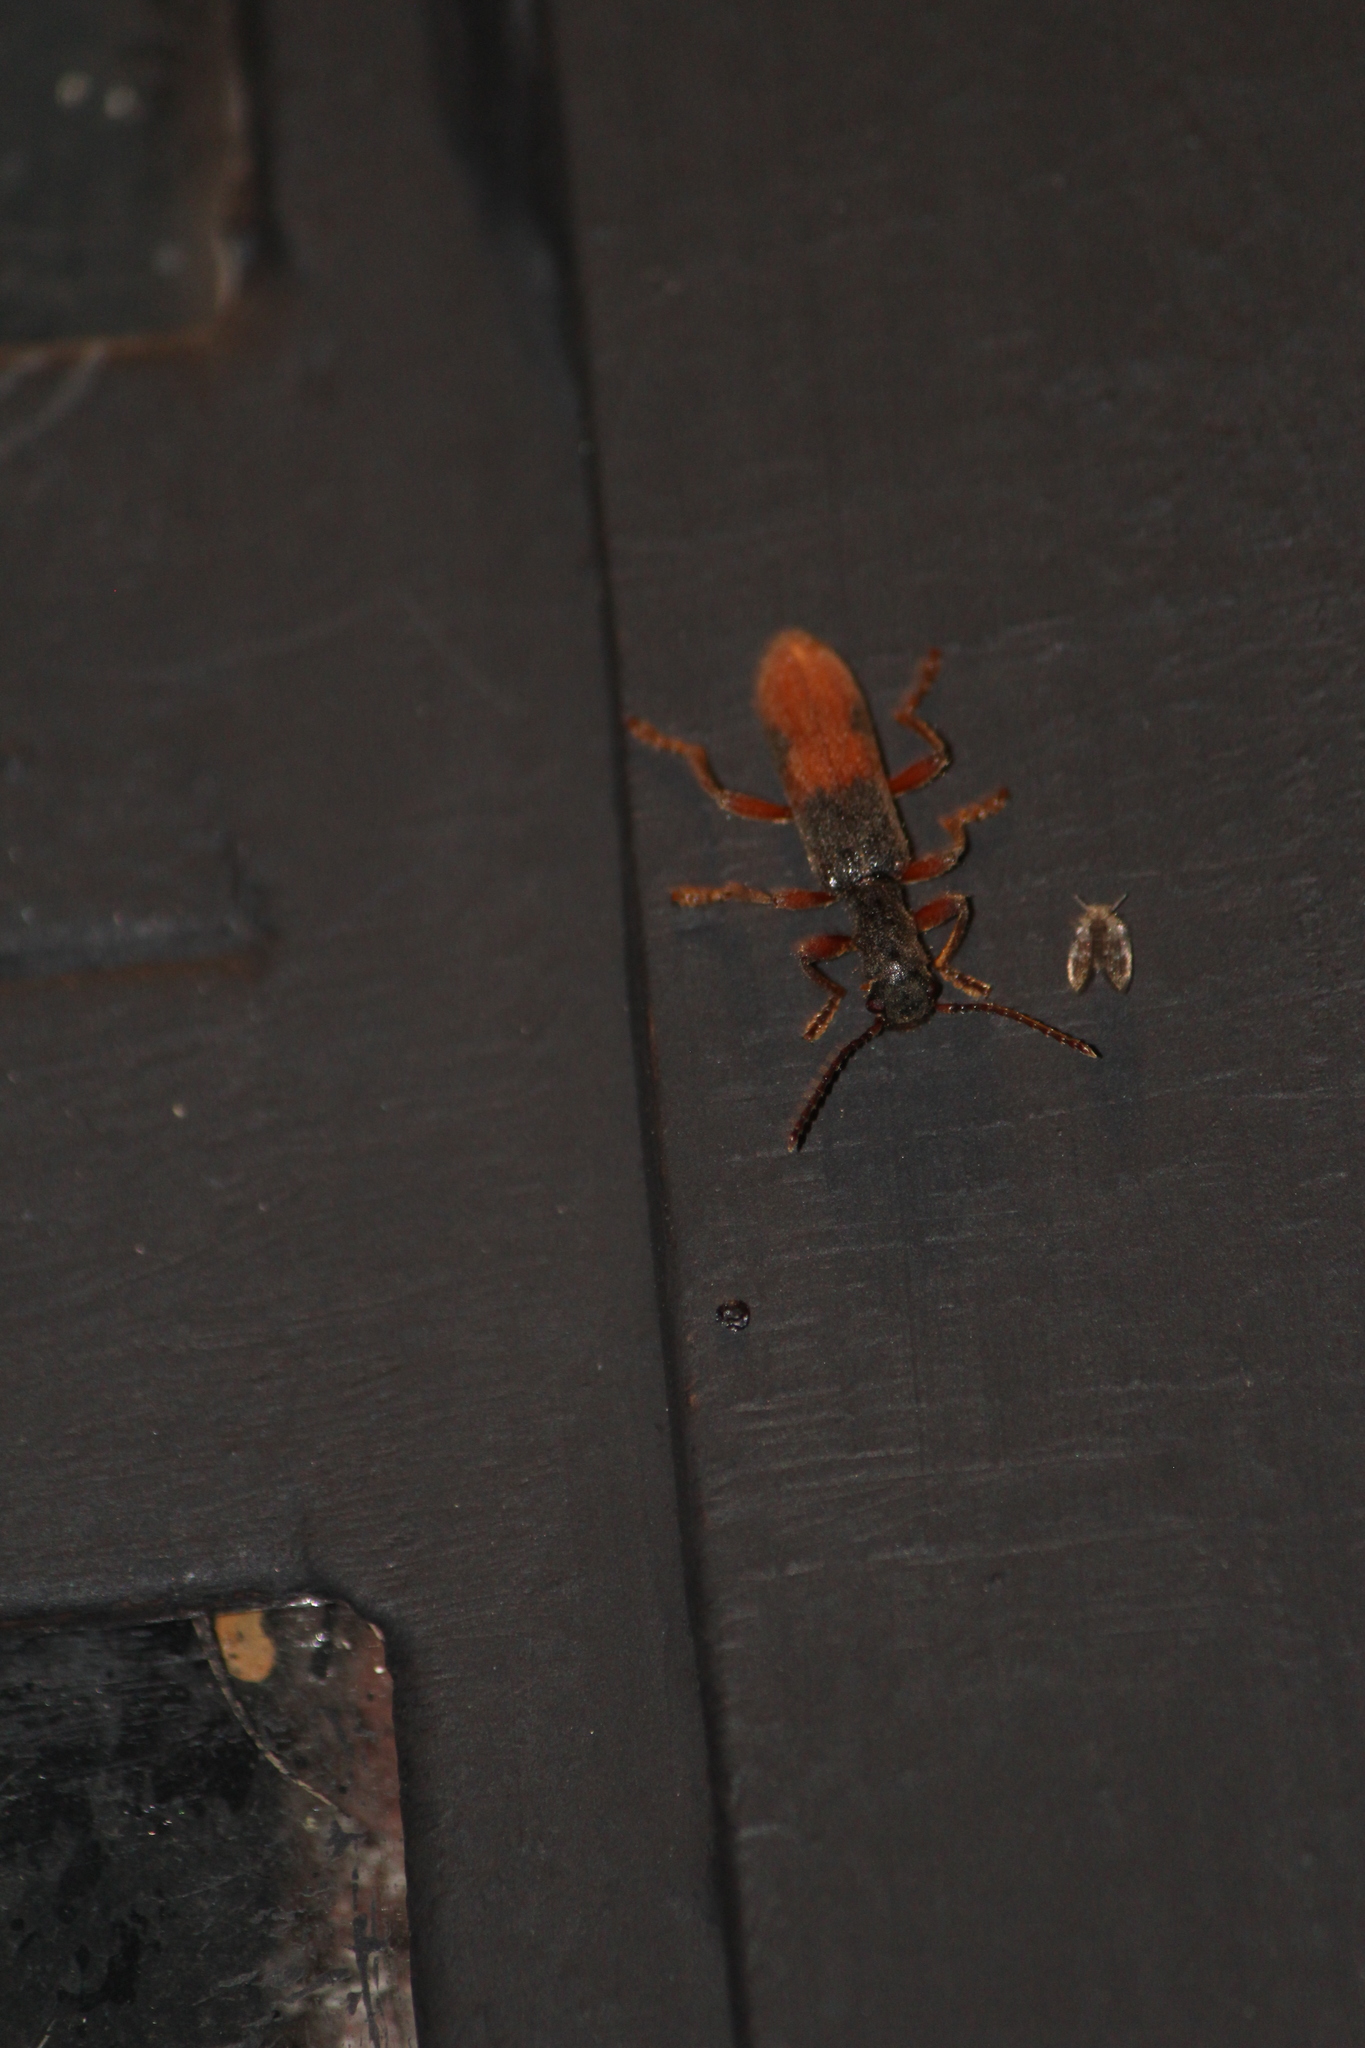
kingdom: Animalia
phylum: Arthropoda
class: Insecta
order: Coleoptera
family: Cleridae
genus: Cymatodera
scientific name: Cymatodera hopei
